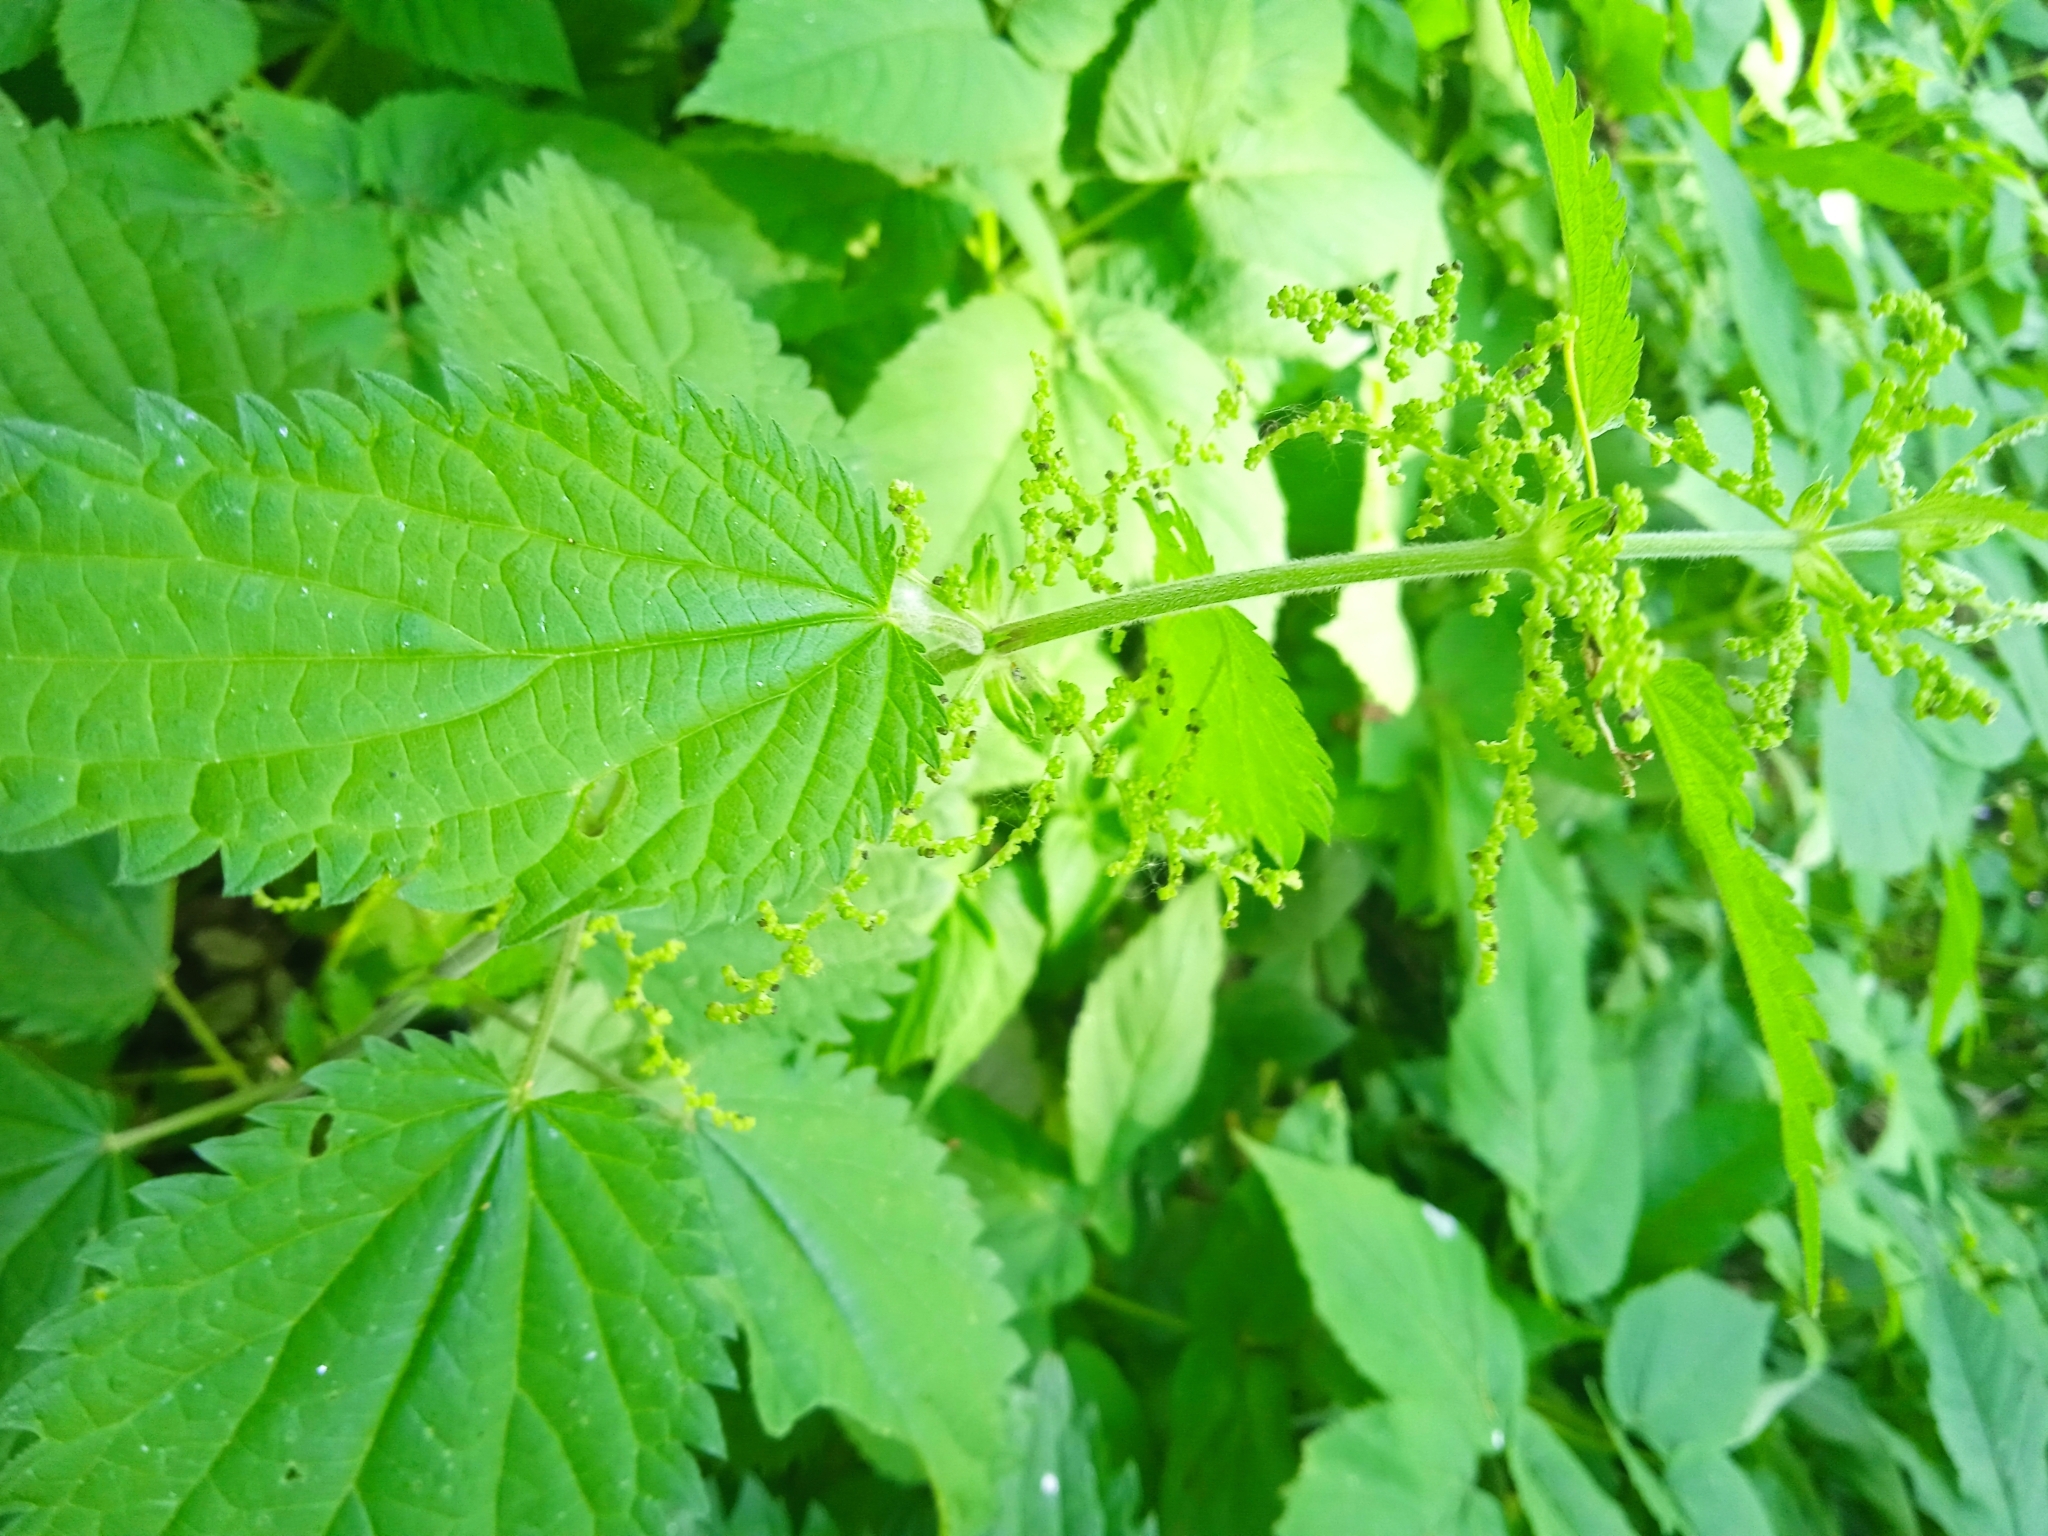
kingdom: Plantae
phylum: Tracheophyta
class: Magnoliopsida
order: Rosales
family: Urticaceae
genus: Urtica
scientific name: Urtica dioica
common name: Common nettle
